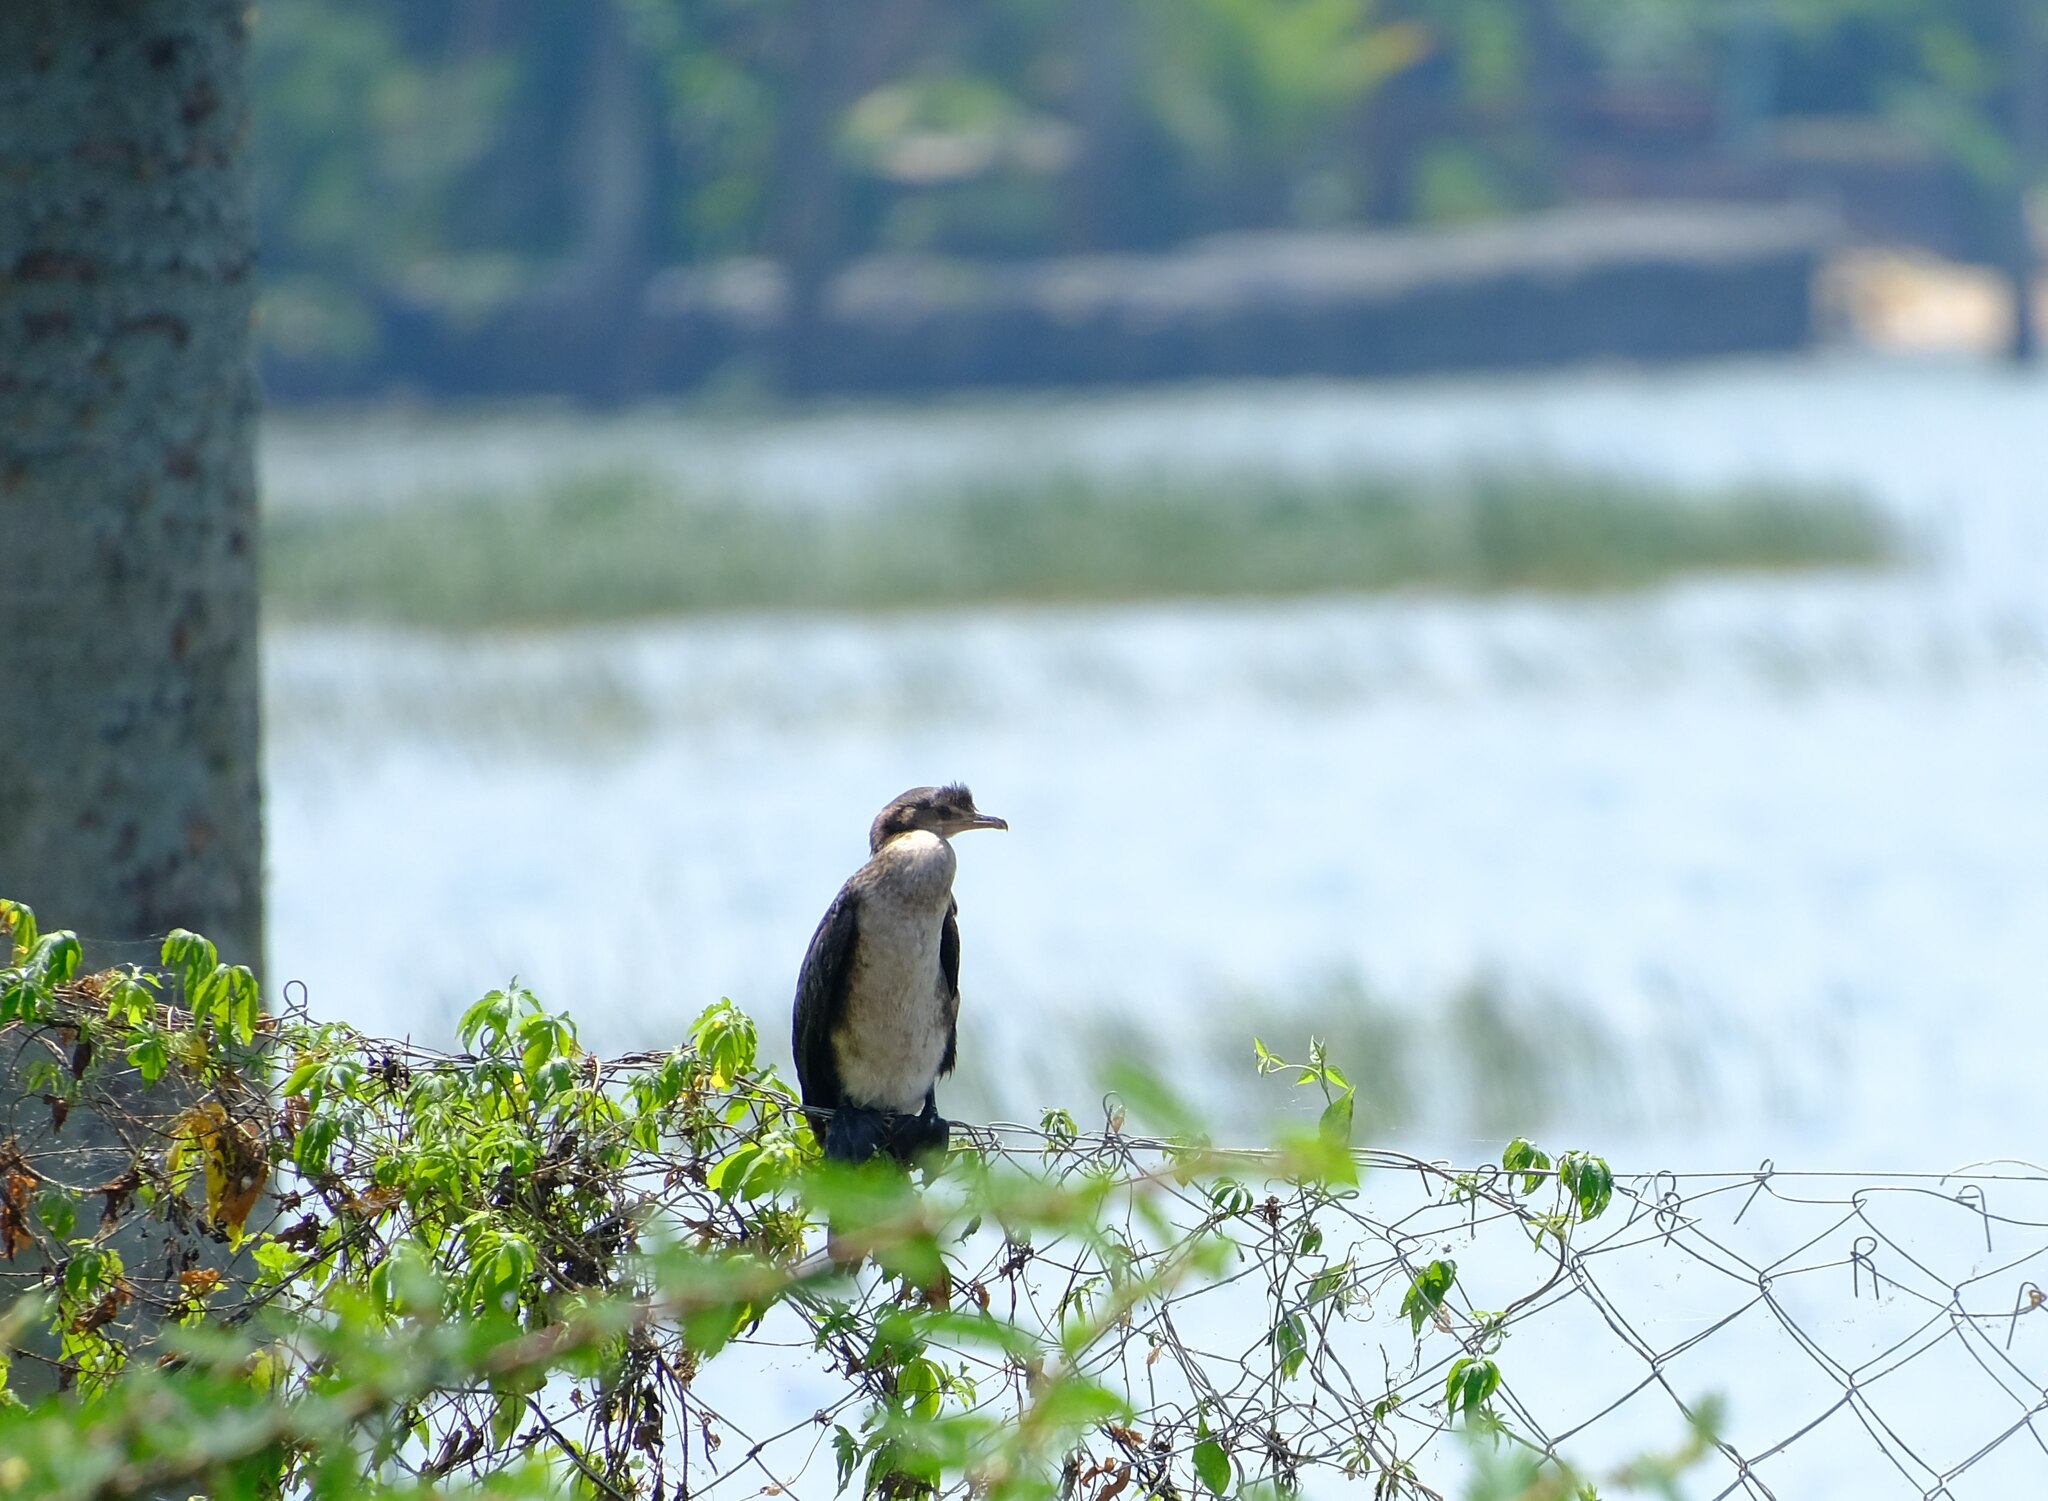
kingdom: Animalia
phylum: Chordata
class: Aves
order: Suliformes
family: Phalacrocoracidae
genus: Microcarbo
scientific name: Microcarbo africanus
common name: Long-tailed cormorant
